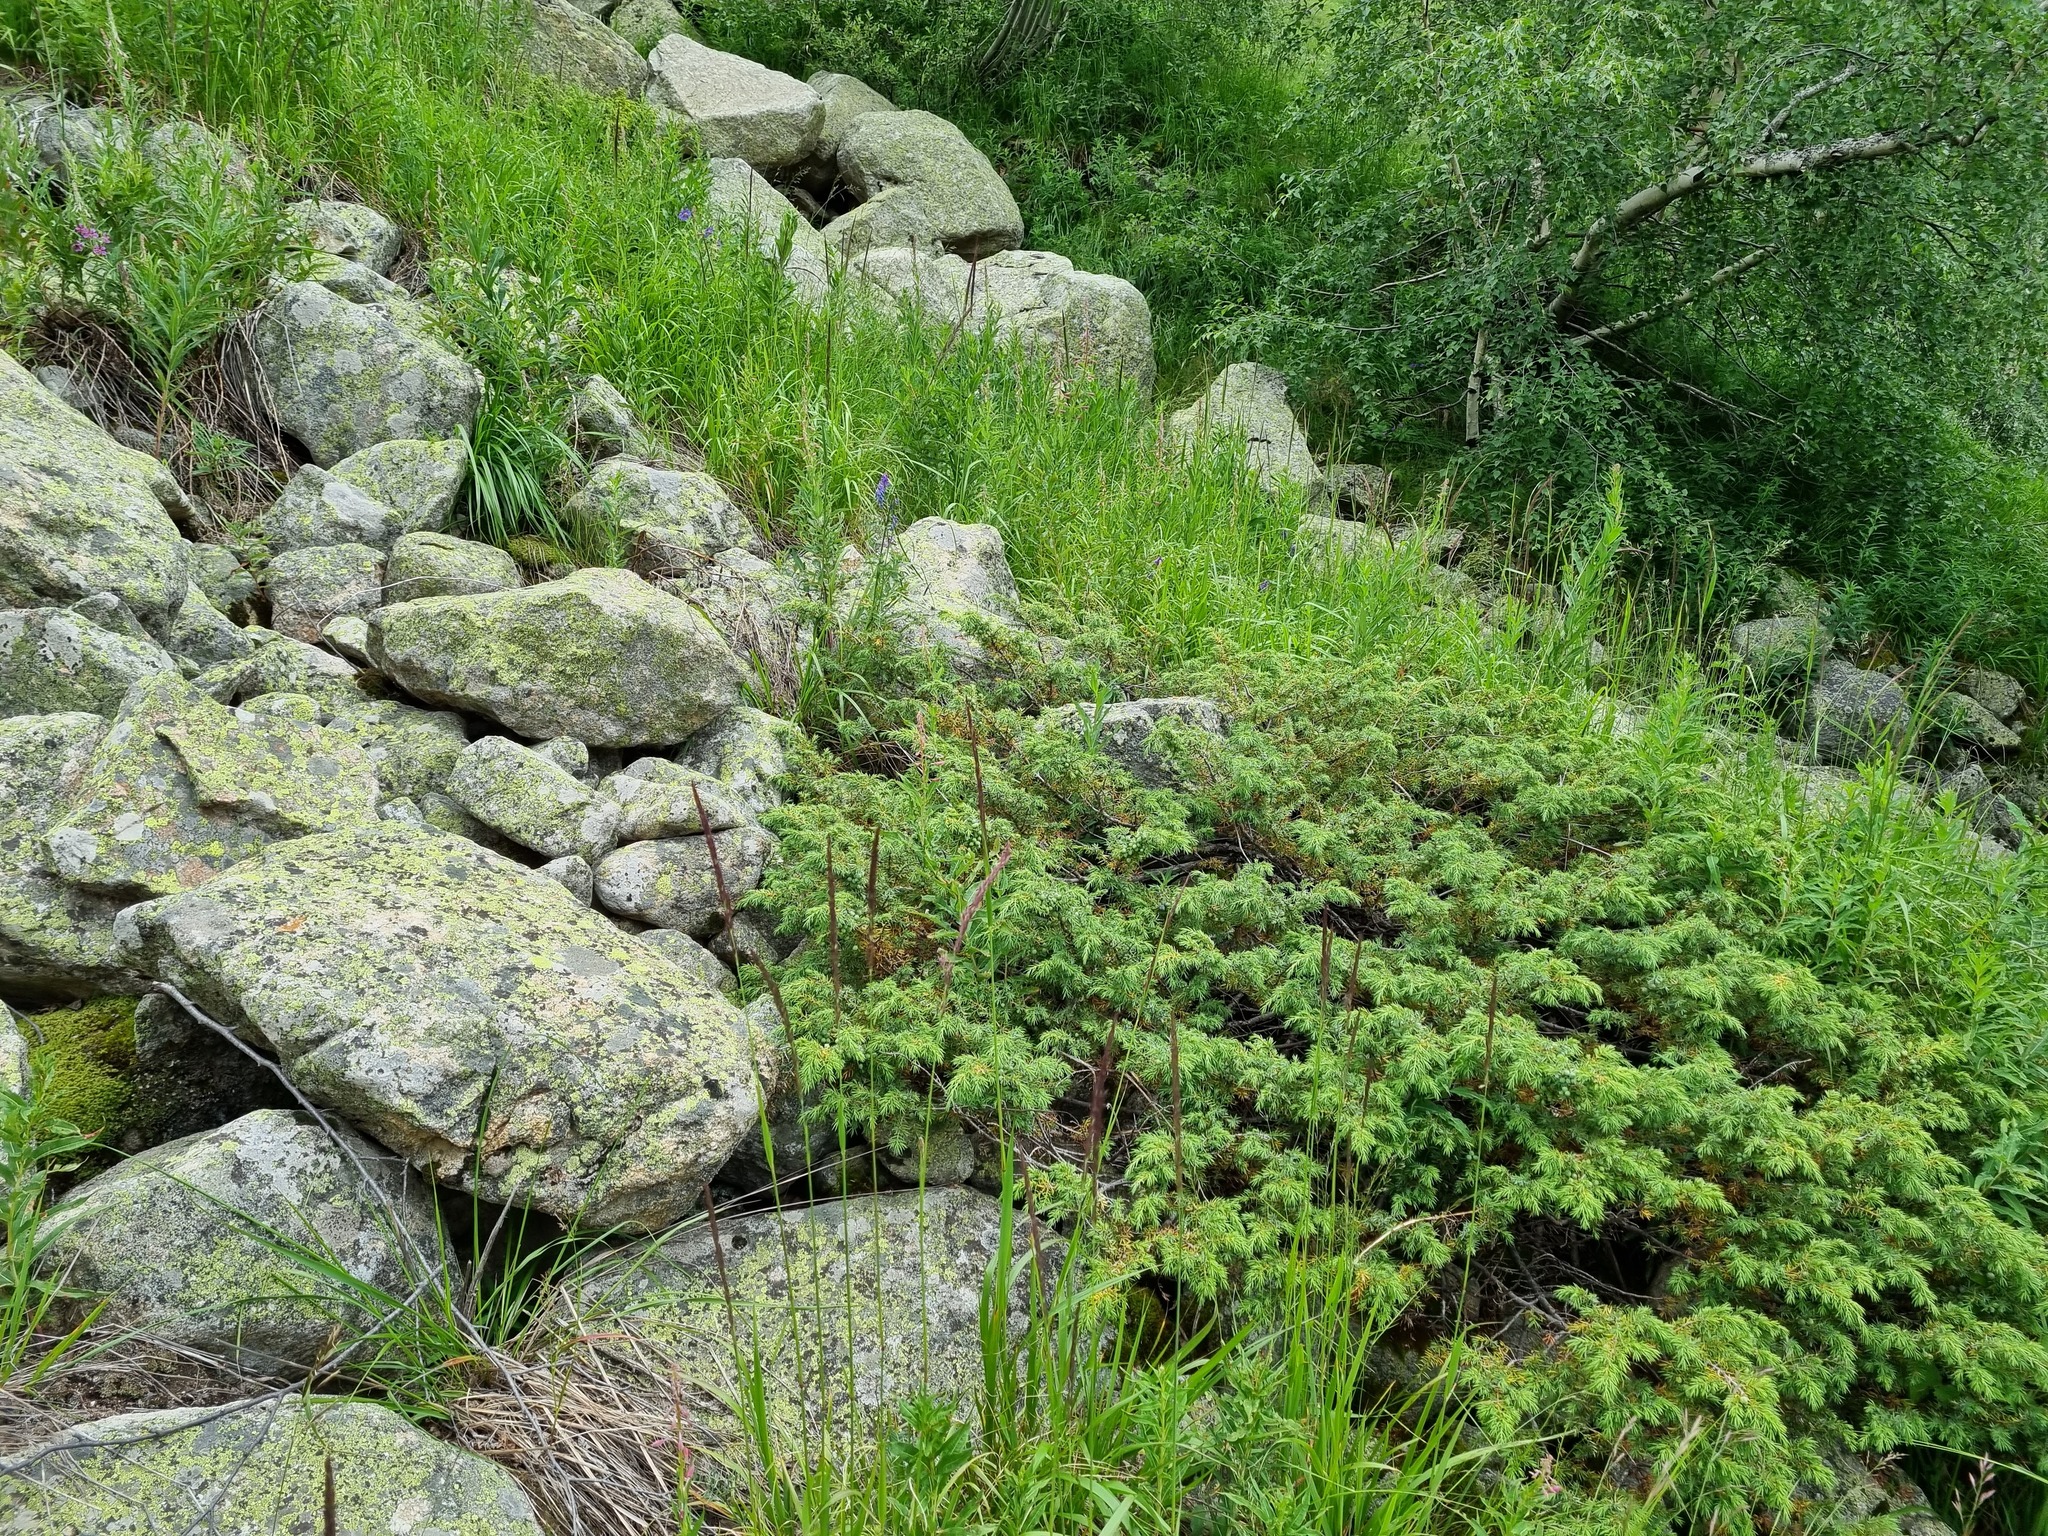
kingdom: Plantae
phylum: Tracheophyta
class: Pinopsida
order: Pinales
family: Cupressaceae
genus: Juniperus
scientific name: Juniperus communis
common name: Common juniper
